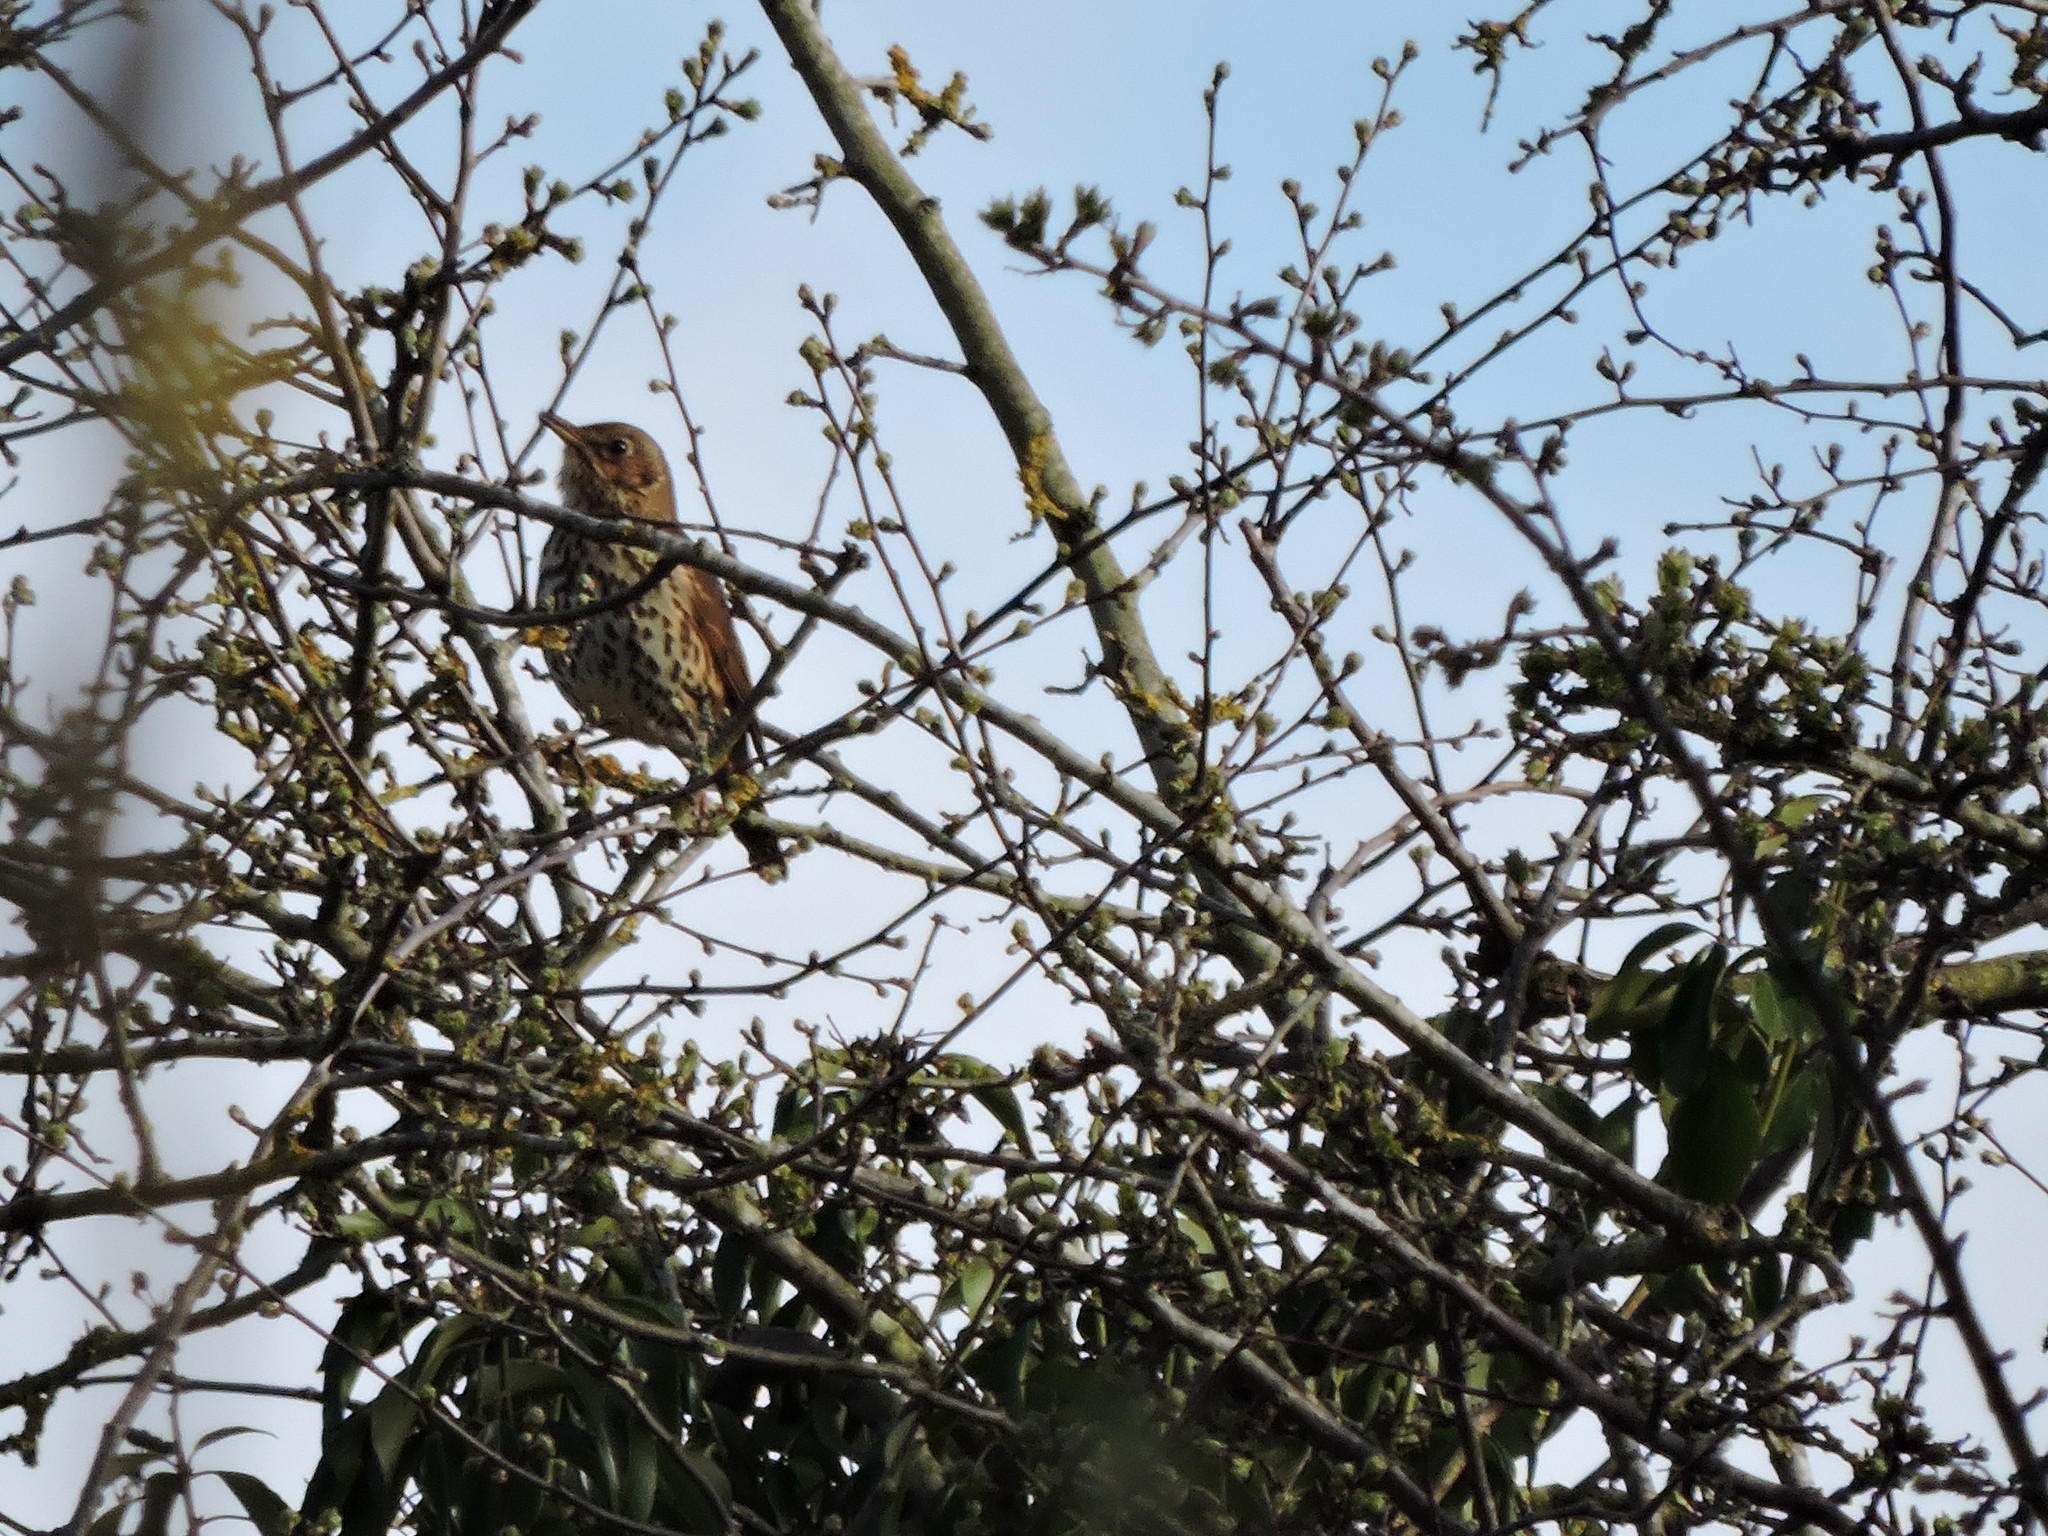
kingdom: Animalia
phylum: Chordata
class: Aves
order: Passeriformes
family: Turdidae
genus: Turdus
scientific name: Turdus philomelos
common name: Song thrush
